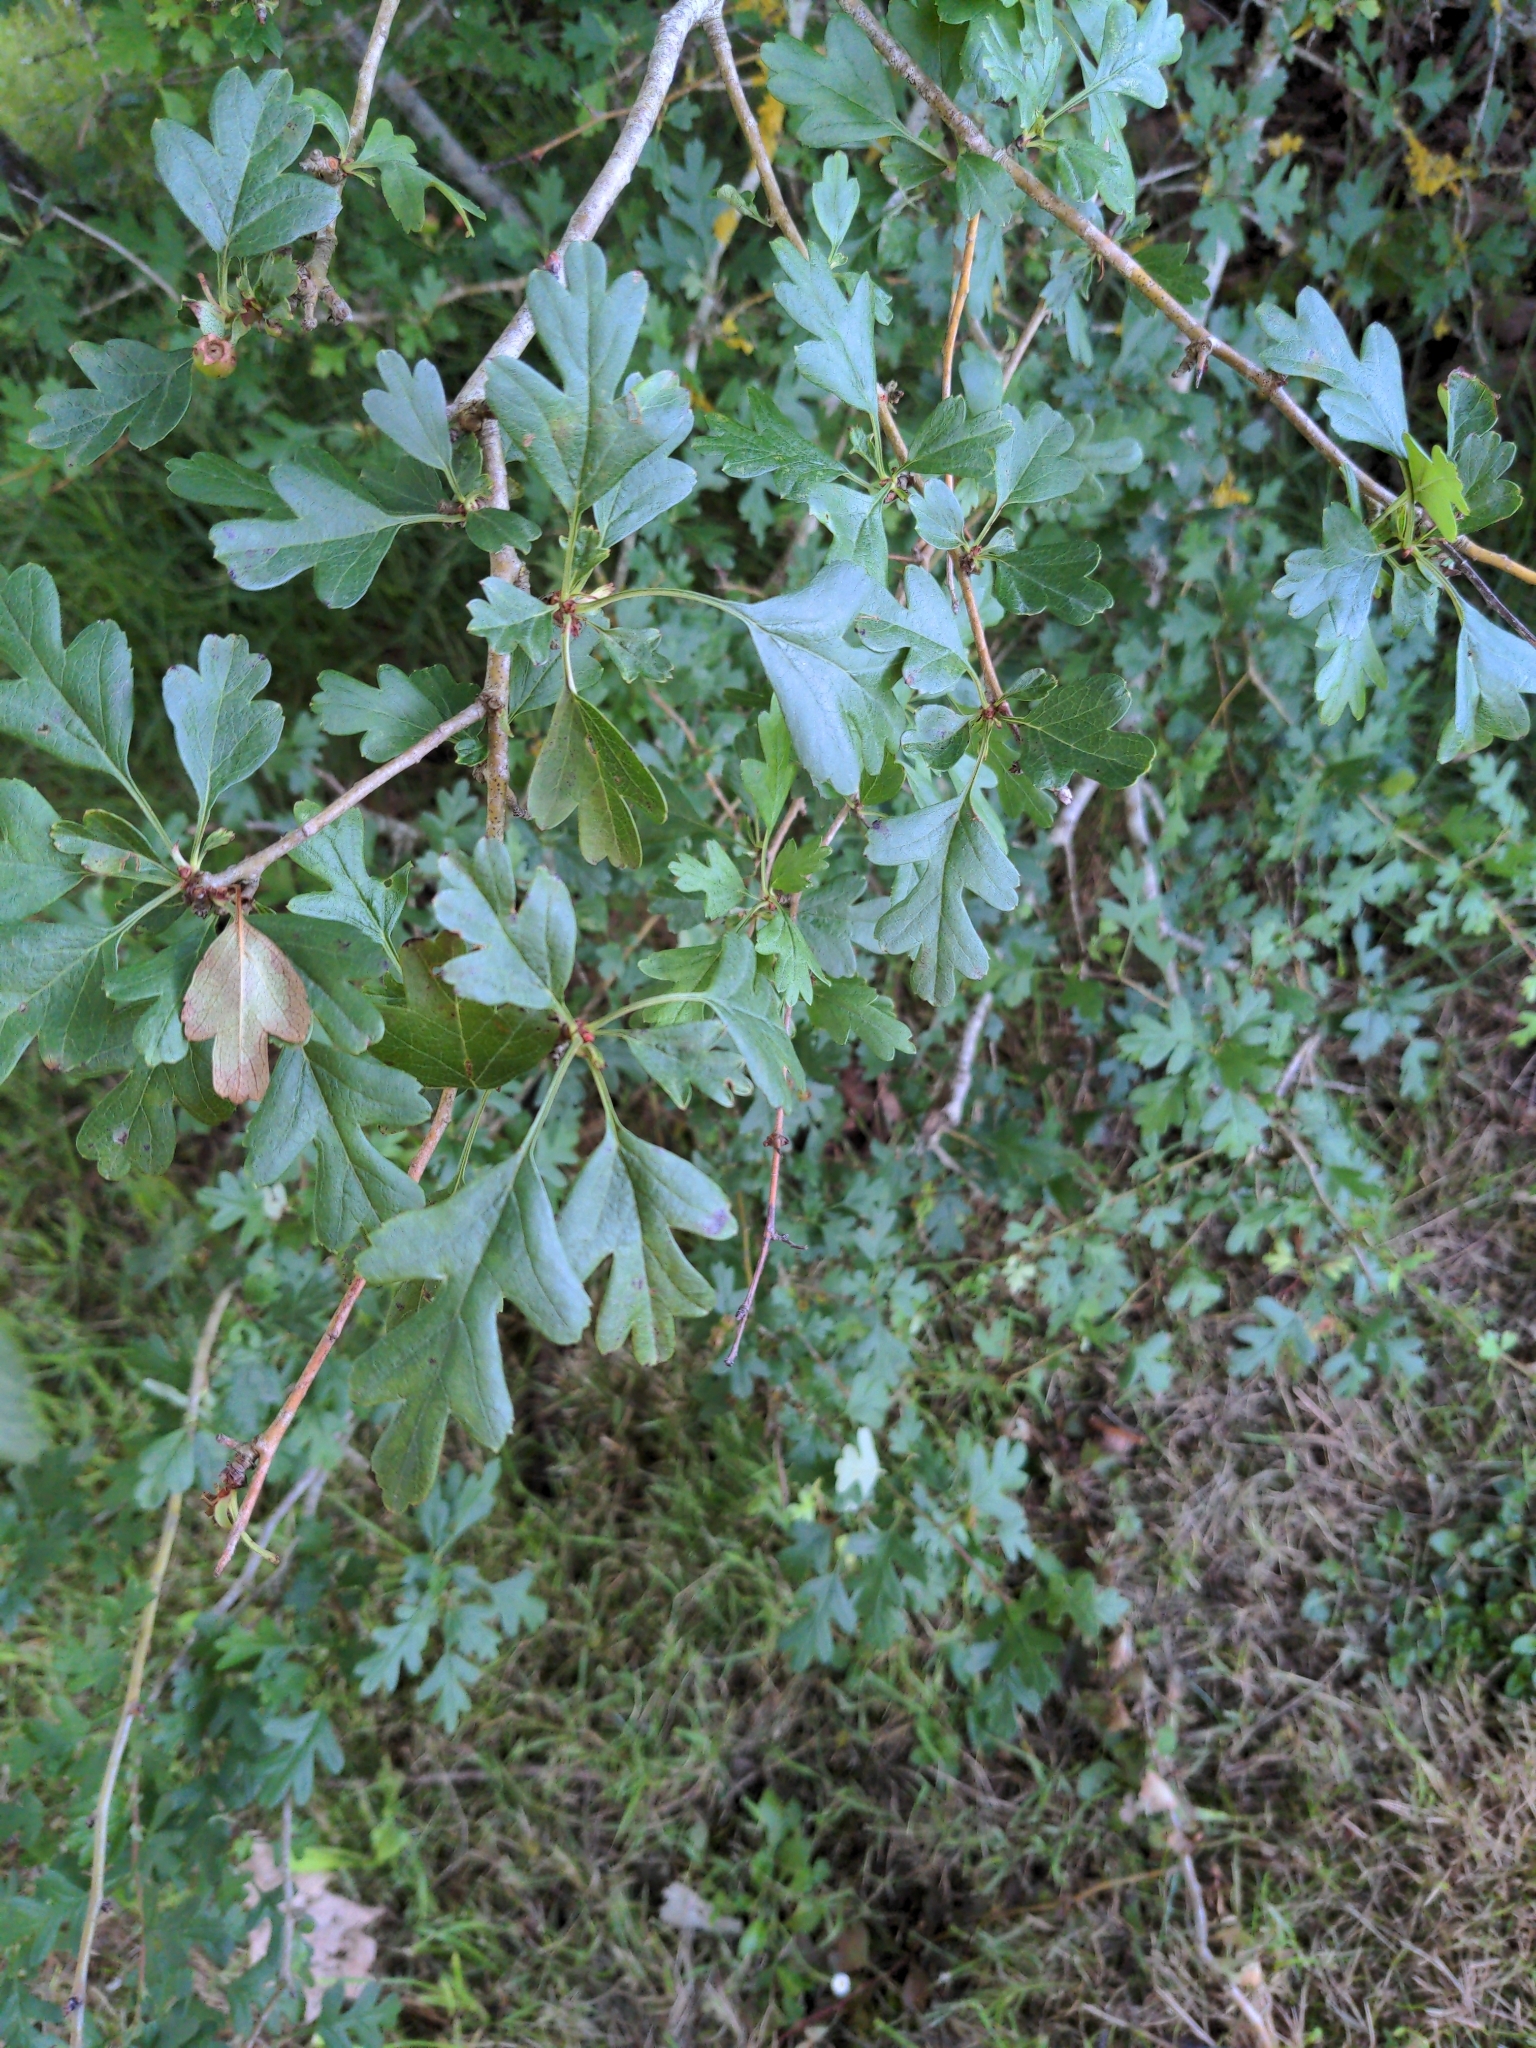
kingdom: Plantae
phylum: Tracheophyta
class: Magnoliopsida
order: Rosales
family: Rosaceae
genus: Crataegus
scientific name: Crataegus monogyna
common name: Hawthorn
